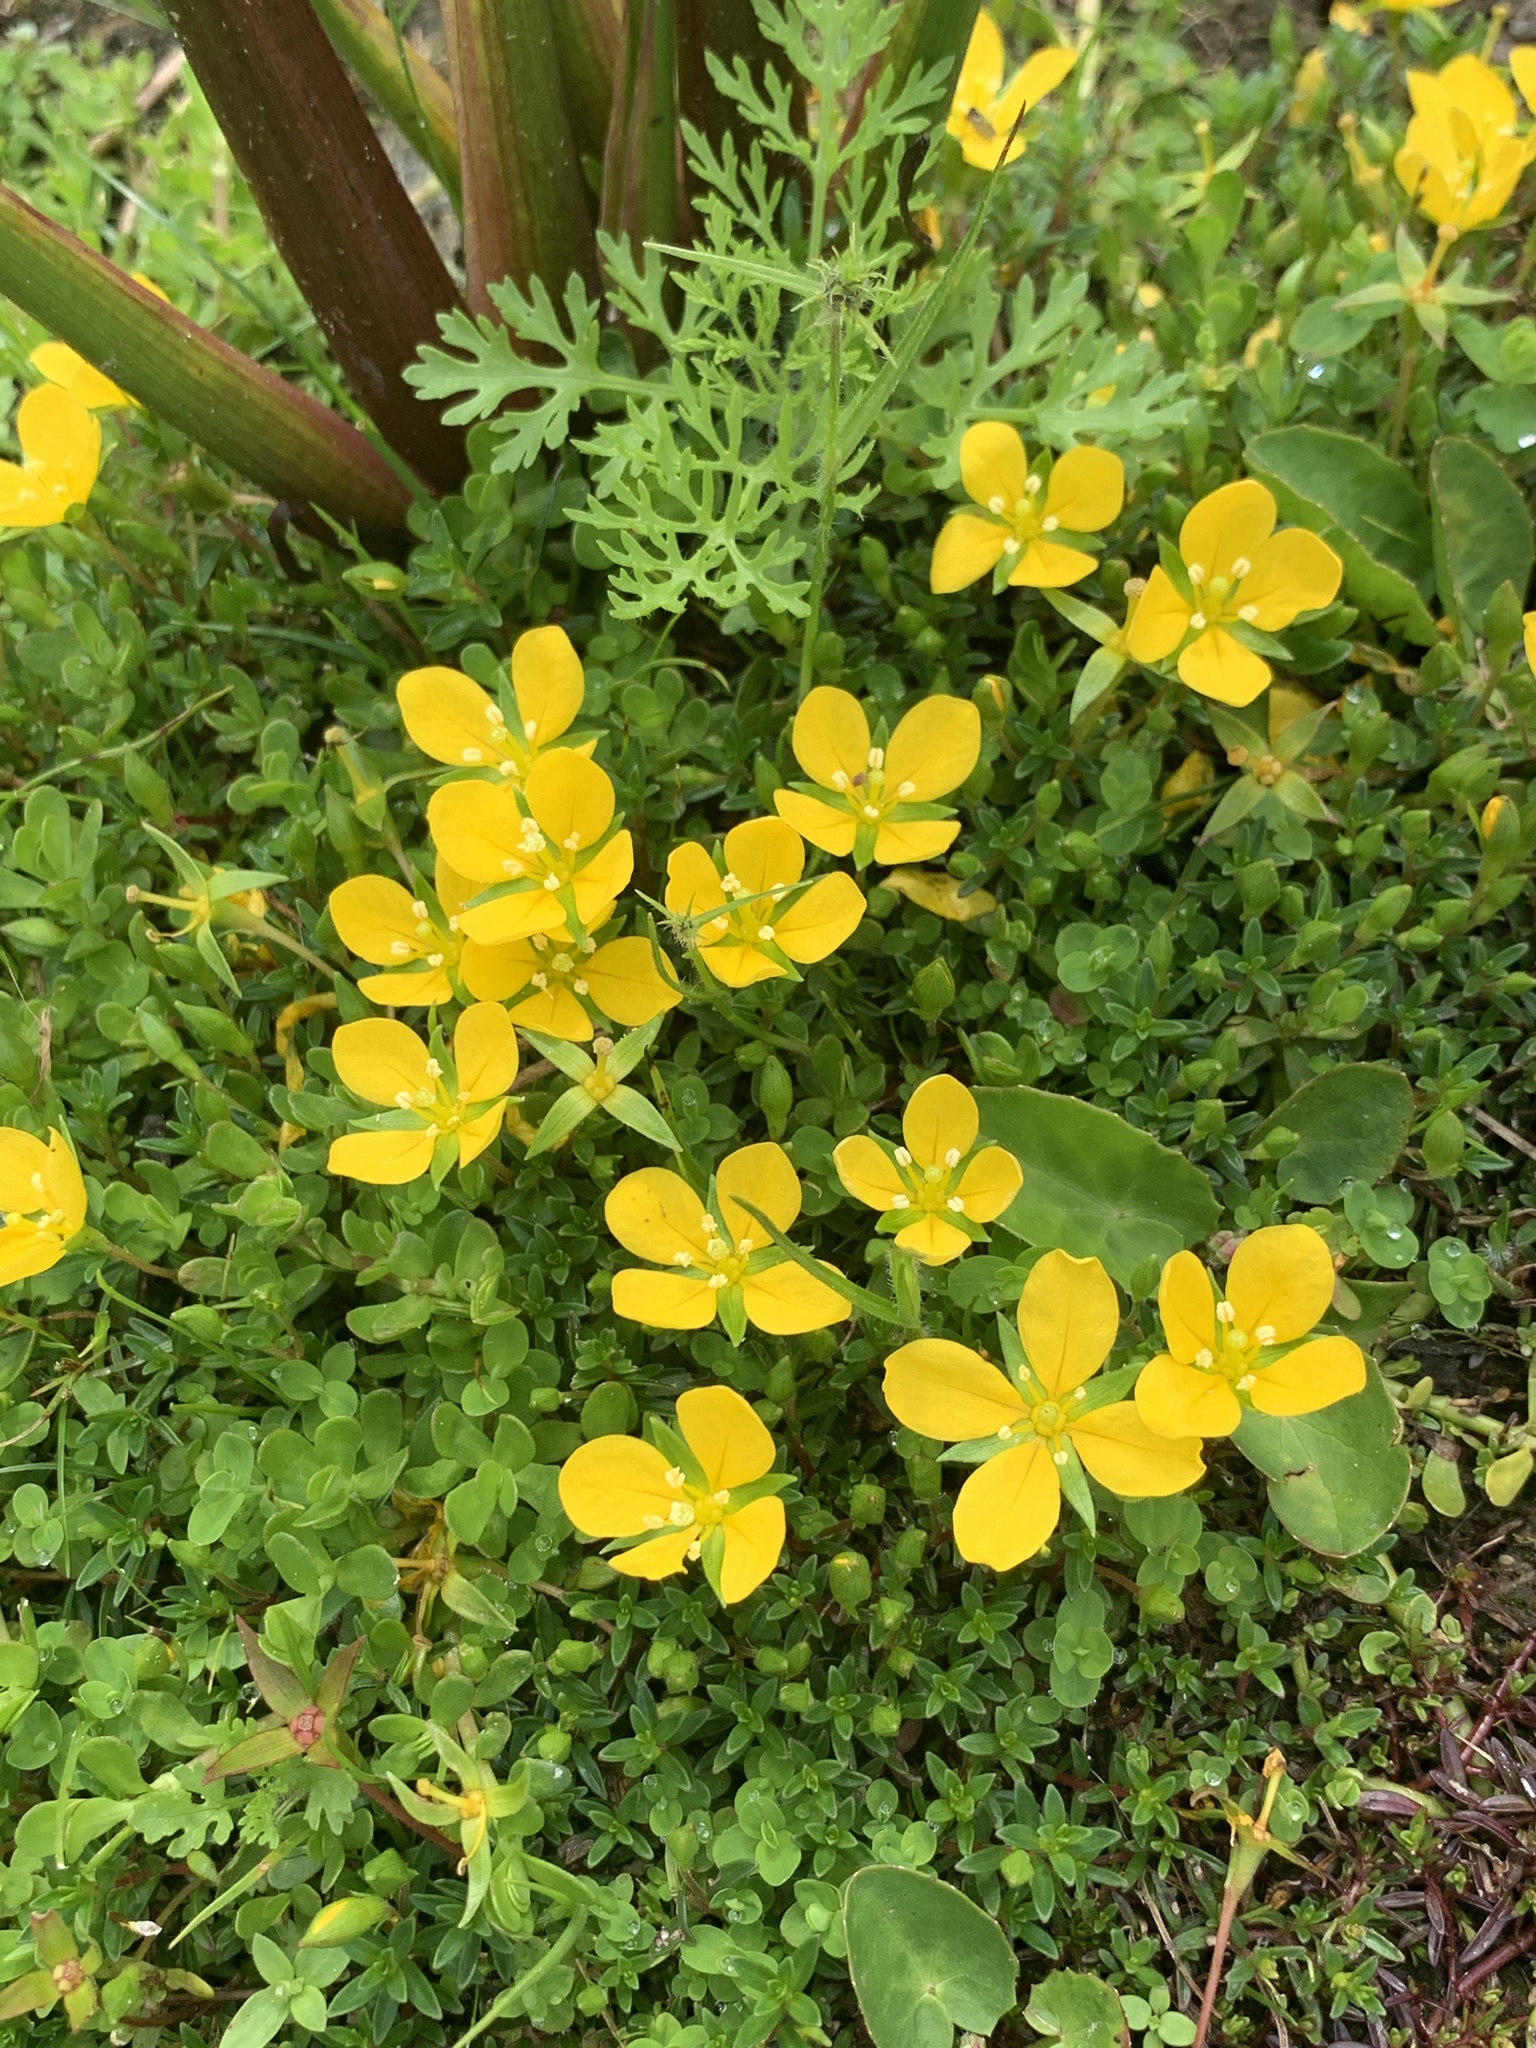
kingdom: Plantae
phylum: Tracheophyta
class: Magnoliopsida
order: Myrtales
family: Onagraceae
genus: Ludwigia
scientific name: Ludwigia arcuata
